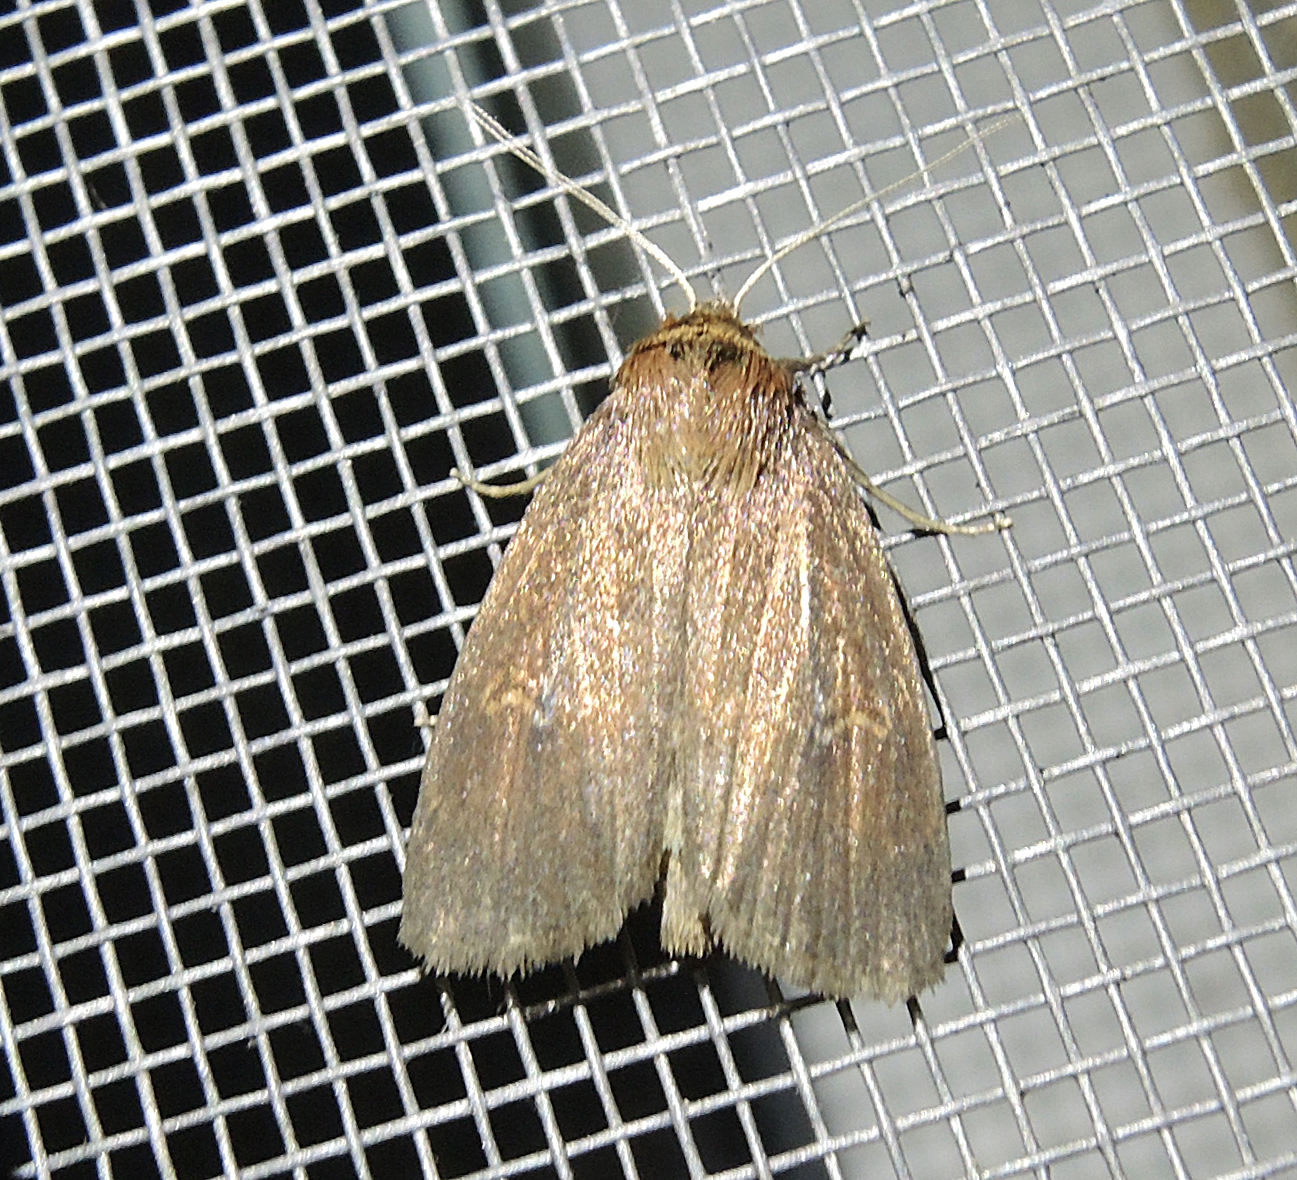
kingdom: Animalia
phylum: Arthropoda
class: Insecta
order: Lepidoptera
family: Noctuidae
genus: Archanara
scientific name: Archanara dissoluta
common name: Brown-veined wainscot
